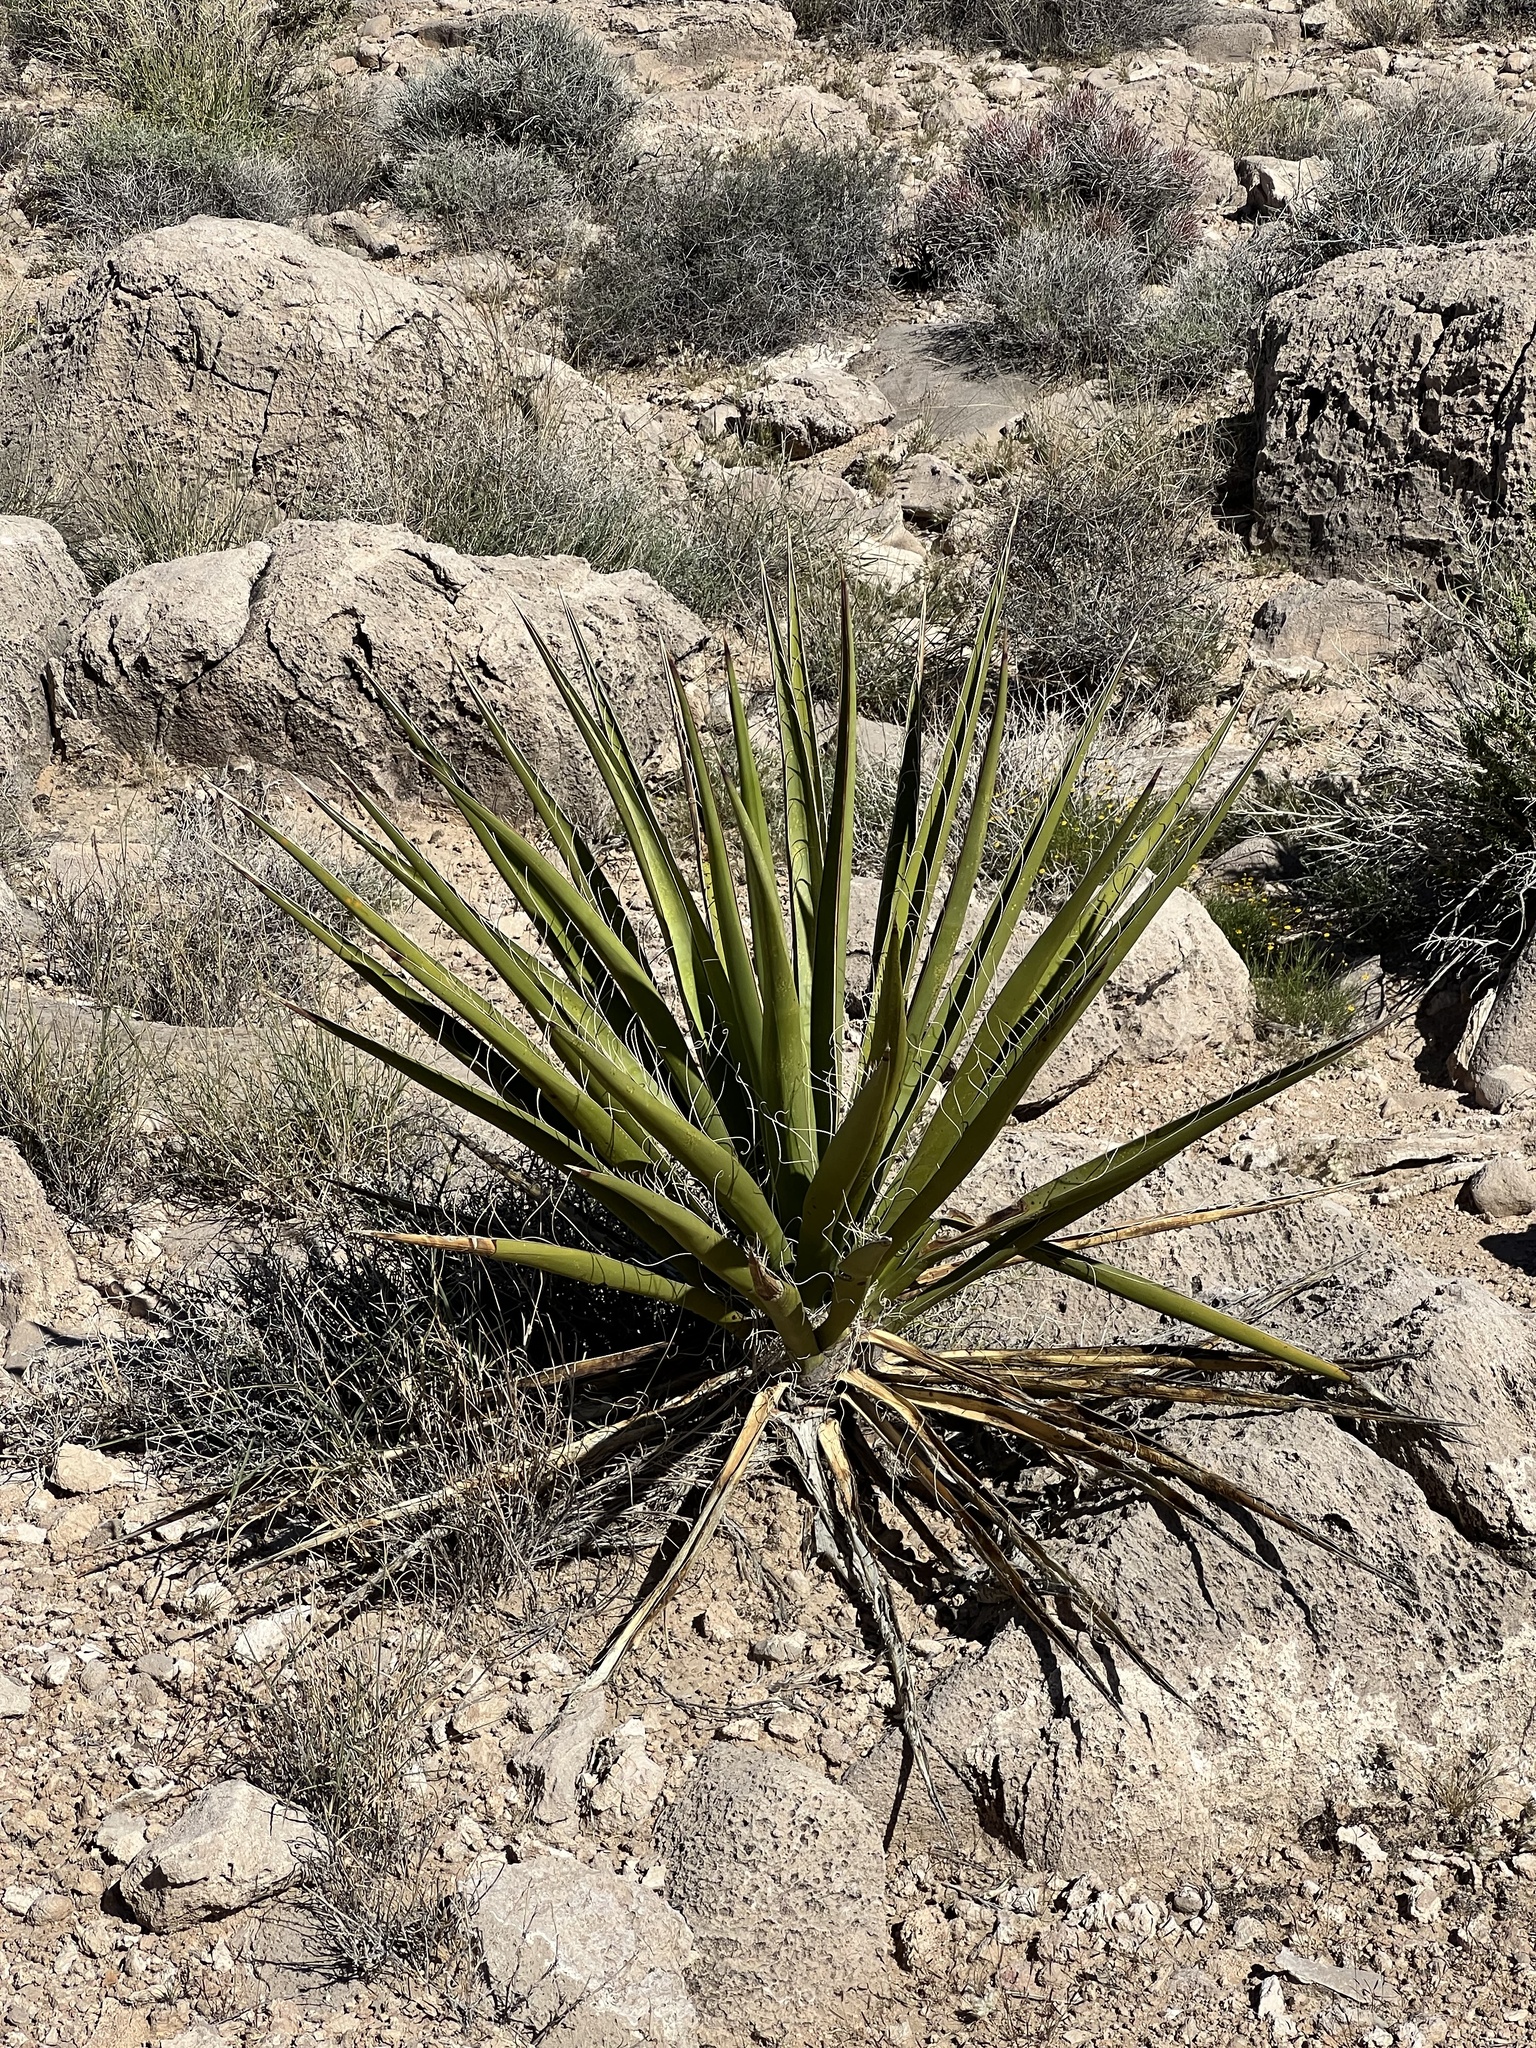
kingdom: Plantae
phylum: Tracheophyta
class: Liliopsida
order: Asparagales
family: Asparagaceae
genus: Yucca
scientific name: Yucca schidigera
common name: Mojave yucca
